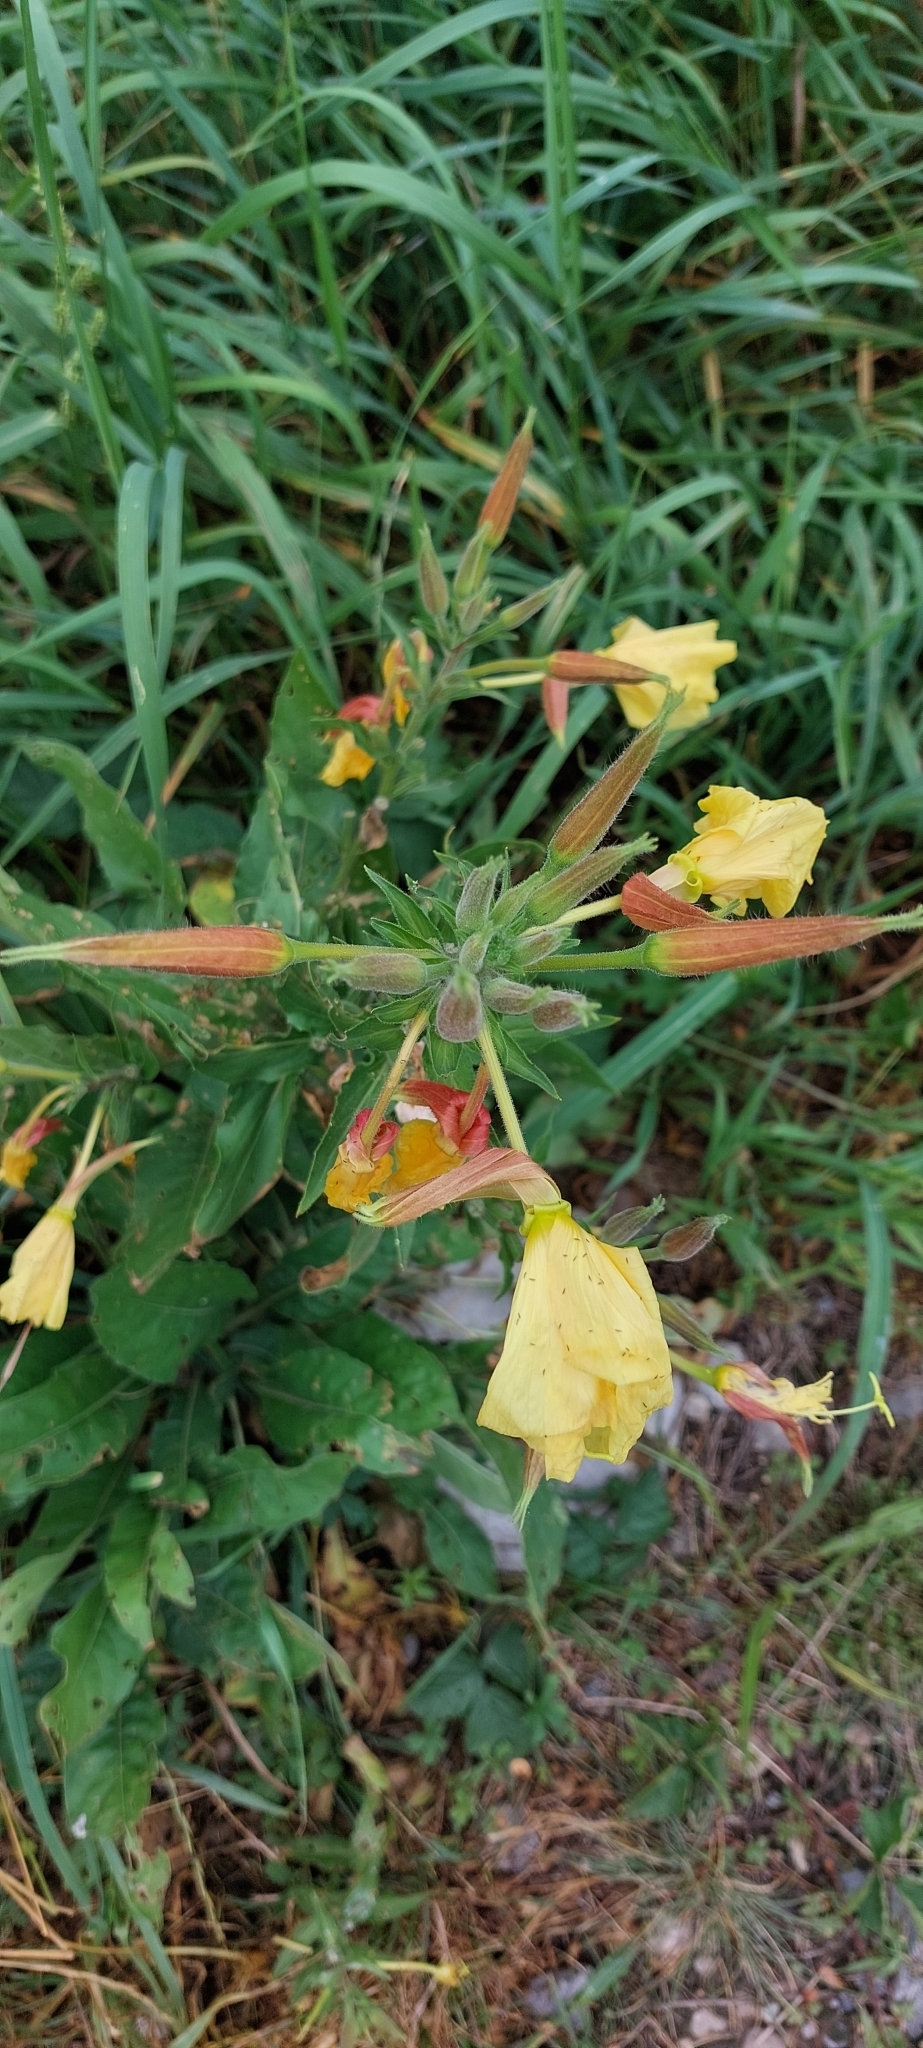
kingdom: Plantae
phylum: Tracheophyta
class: Magnoliopsida
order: Myrtales
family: Onagraceae
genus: Oenothera
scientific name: Oenothera glazioviana
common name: Large-flowered evening-primrose
